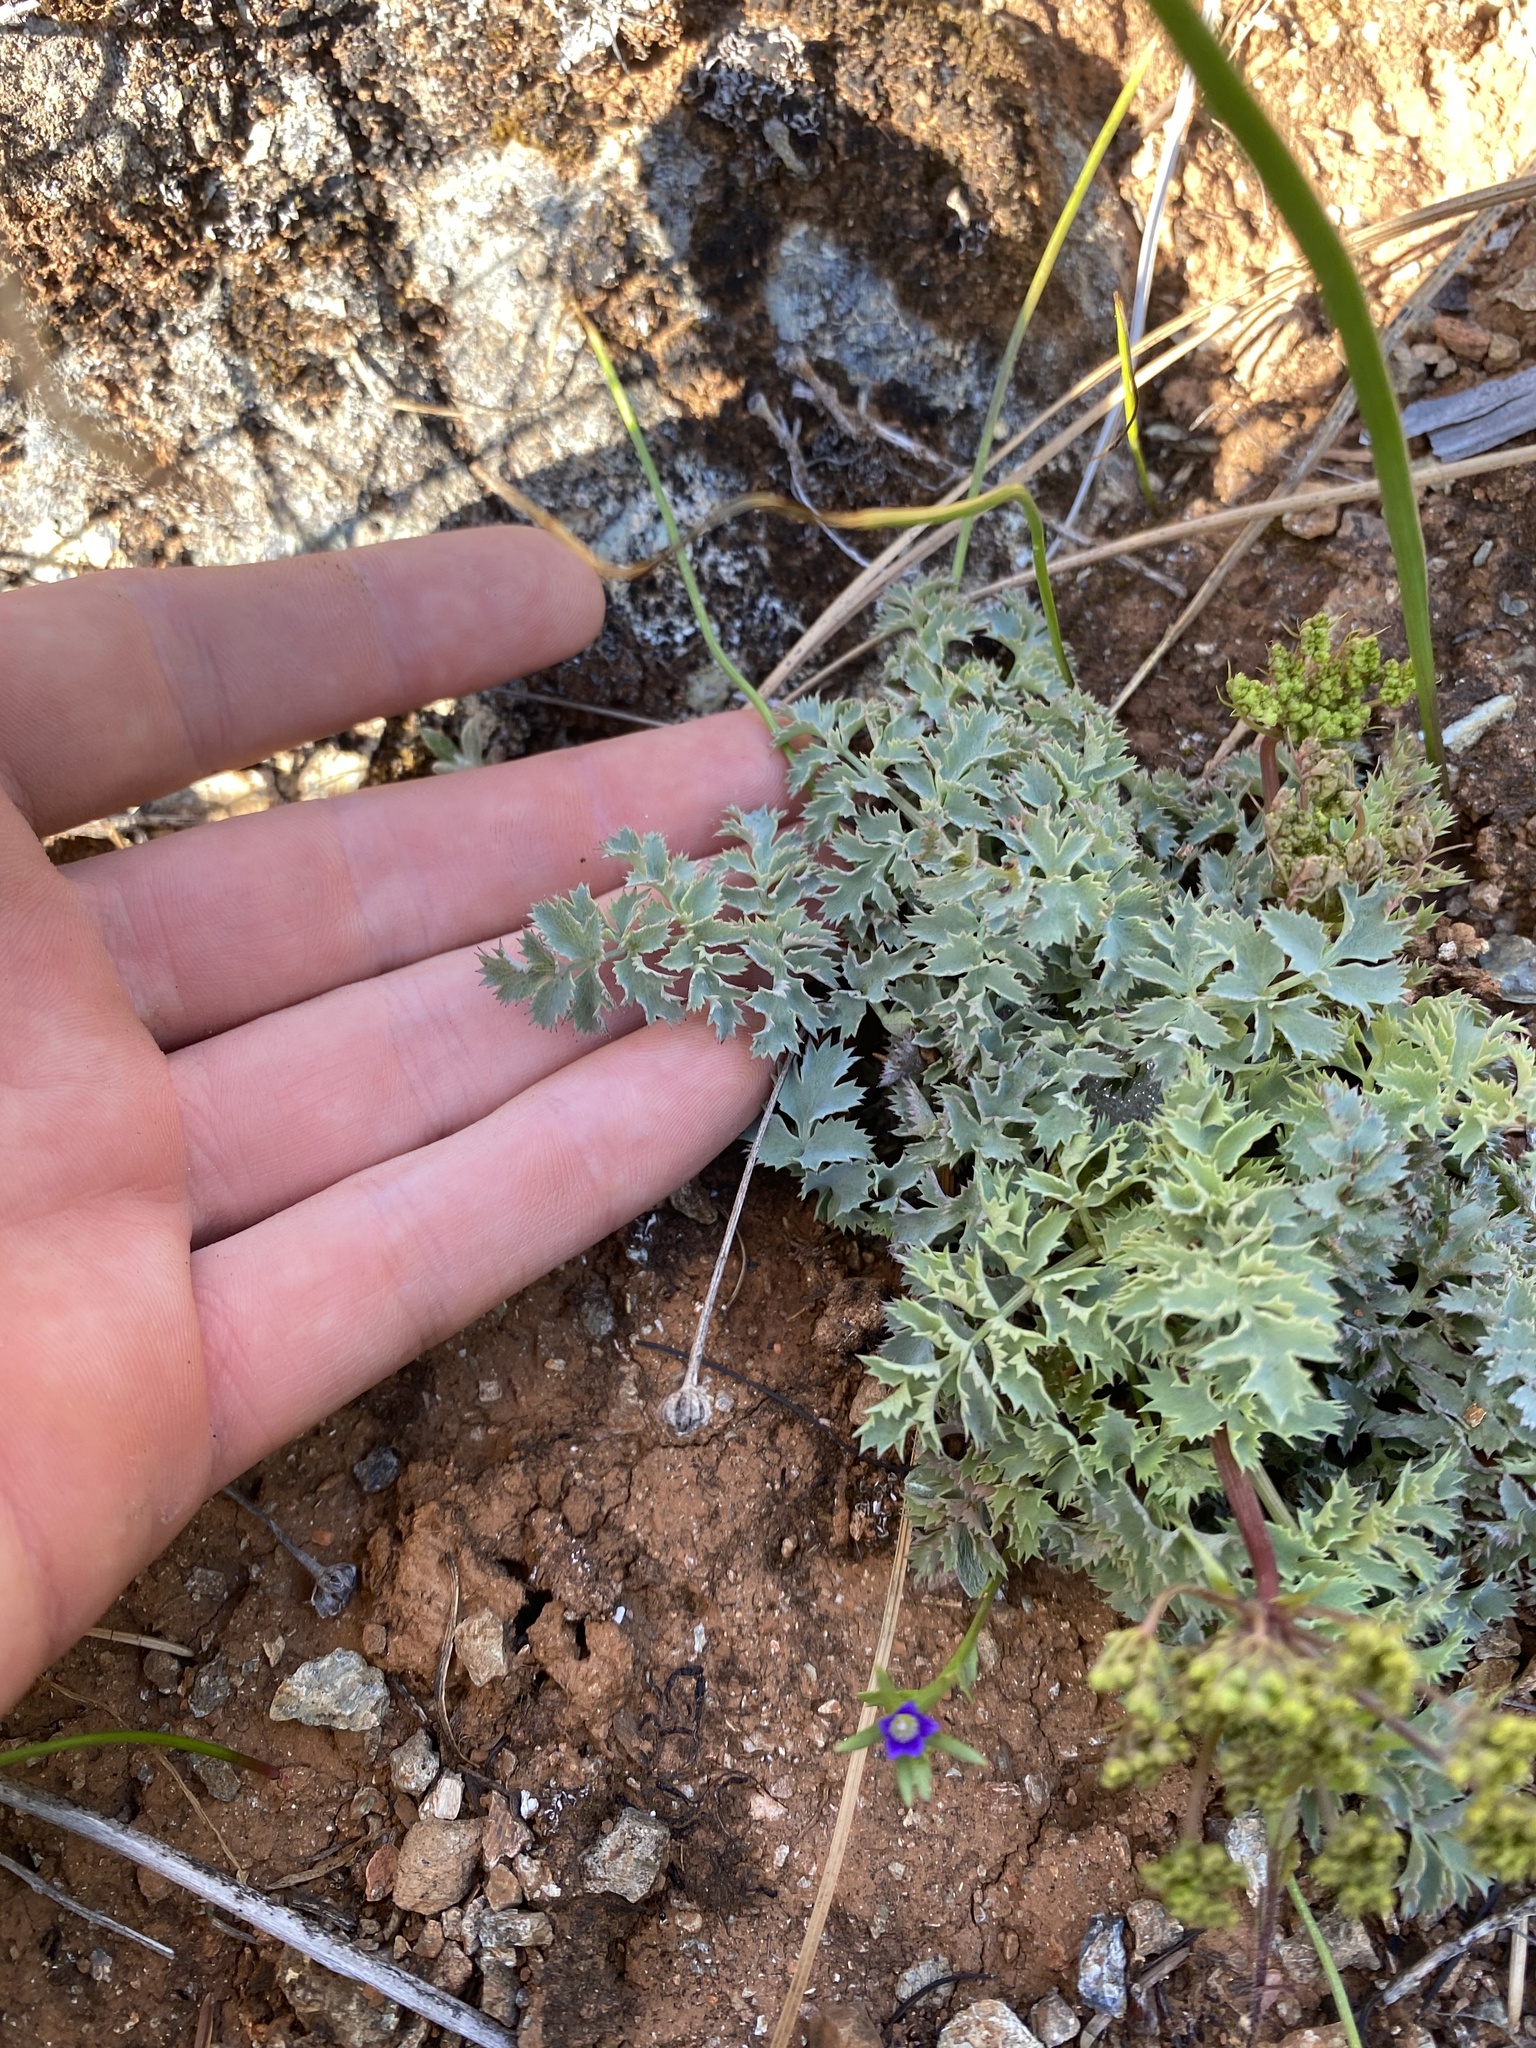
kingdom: Plantae
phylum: Tracheophyta
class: Magnoliopsida
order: Apiales
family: Apiaceae
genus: Lomatium
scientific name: Lomatium howellii
